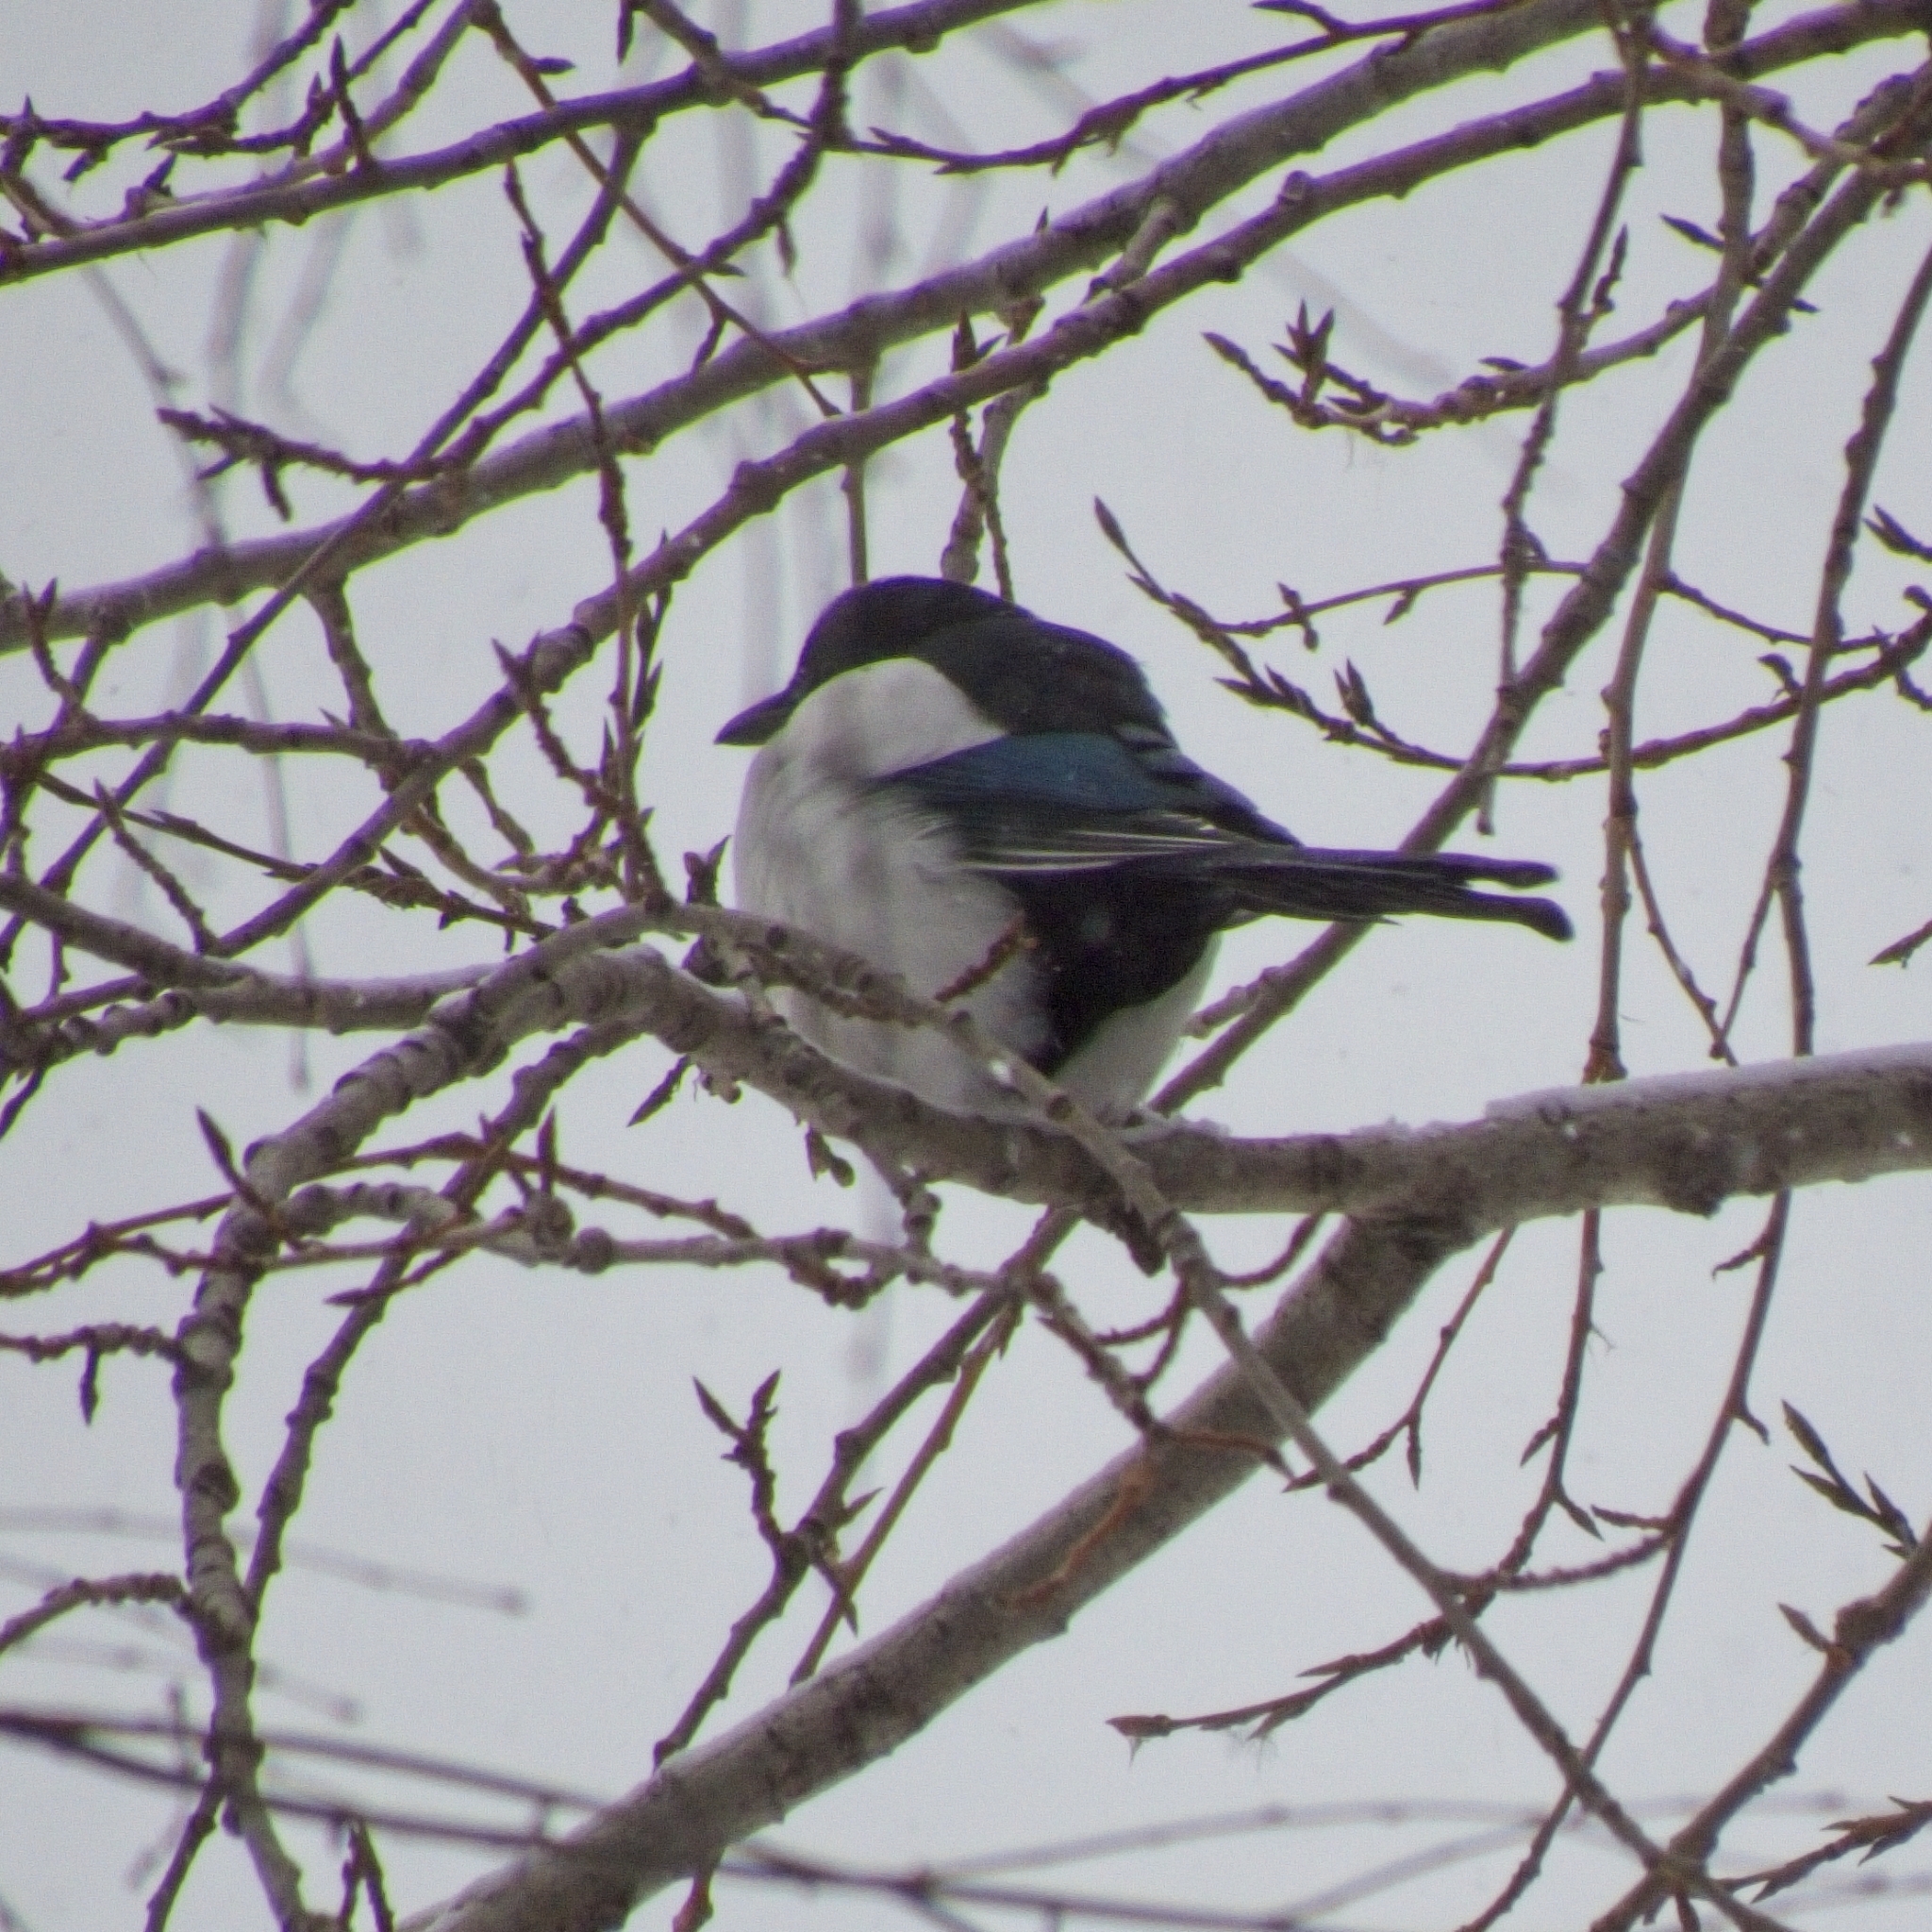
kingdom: Animalia
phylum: Chordata
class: Aves
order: Passeriformes
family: Corvidae
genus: Pica
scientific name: Pica pica
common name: Eurasian magpie
